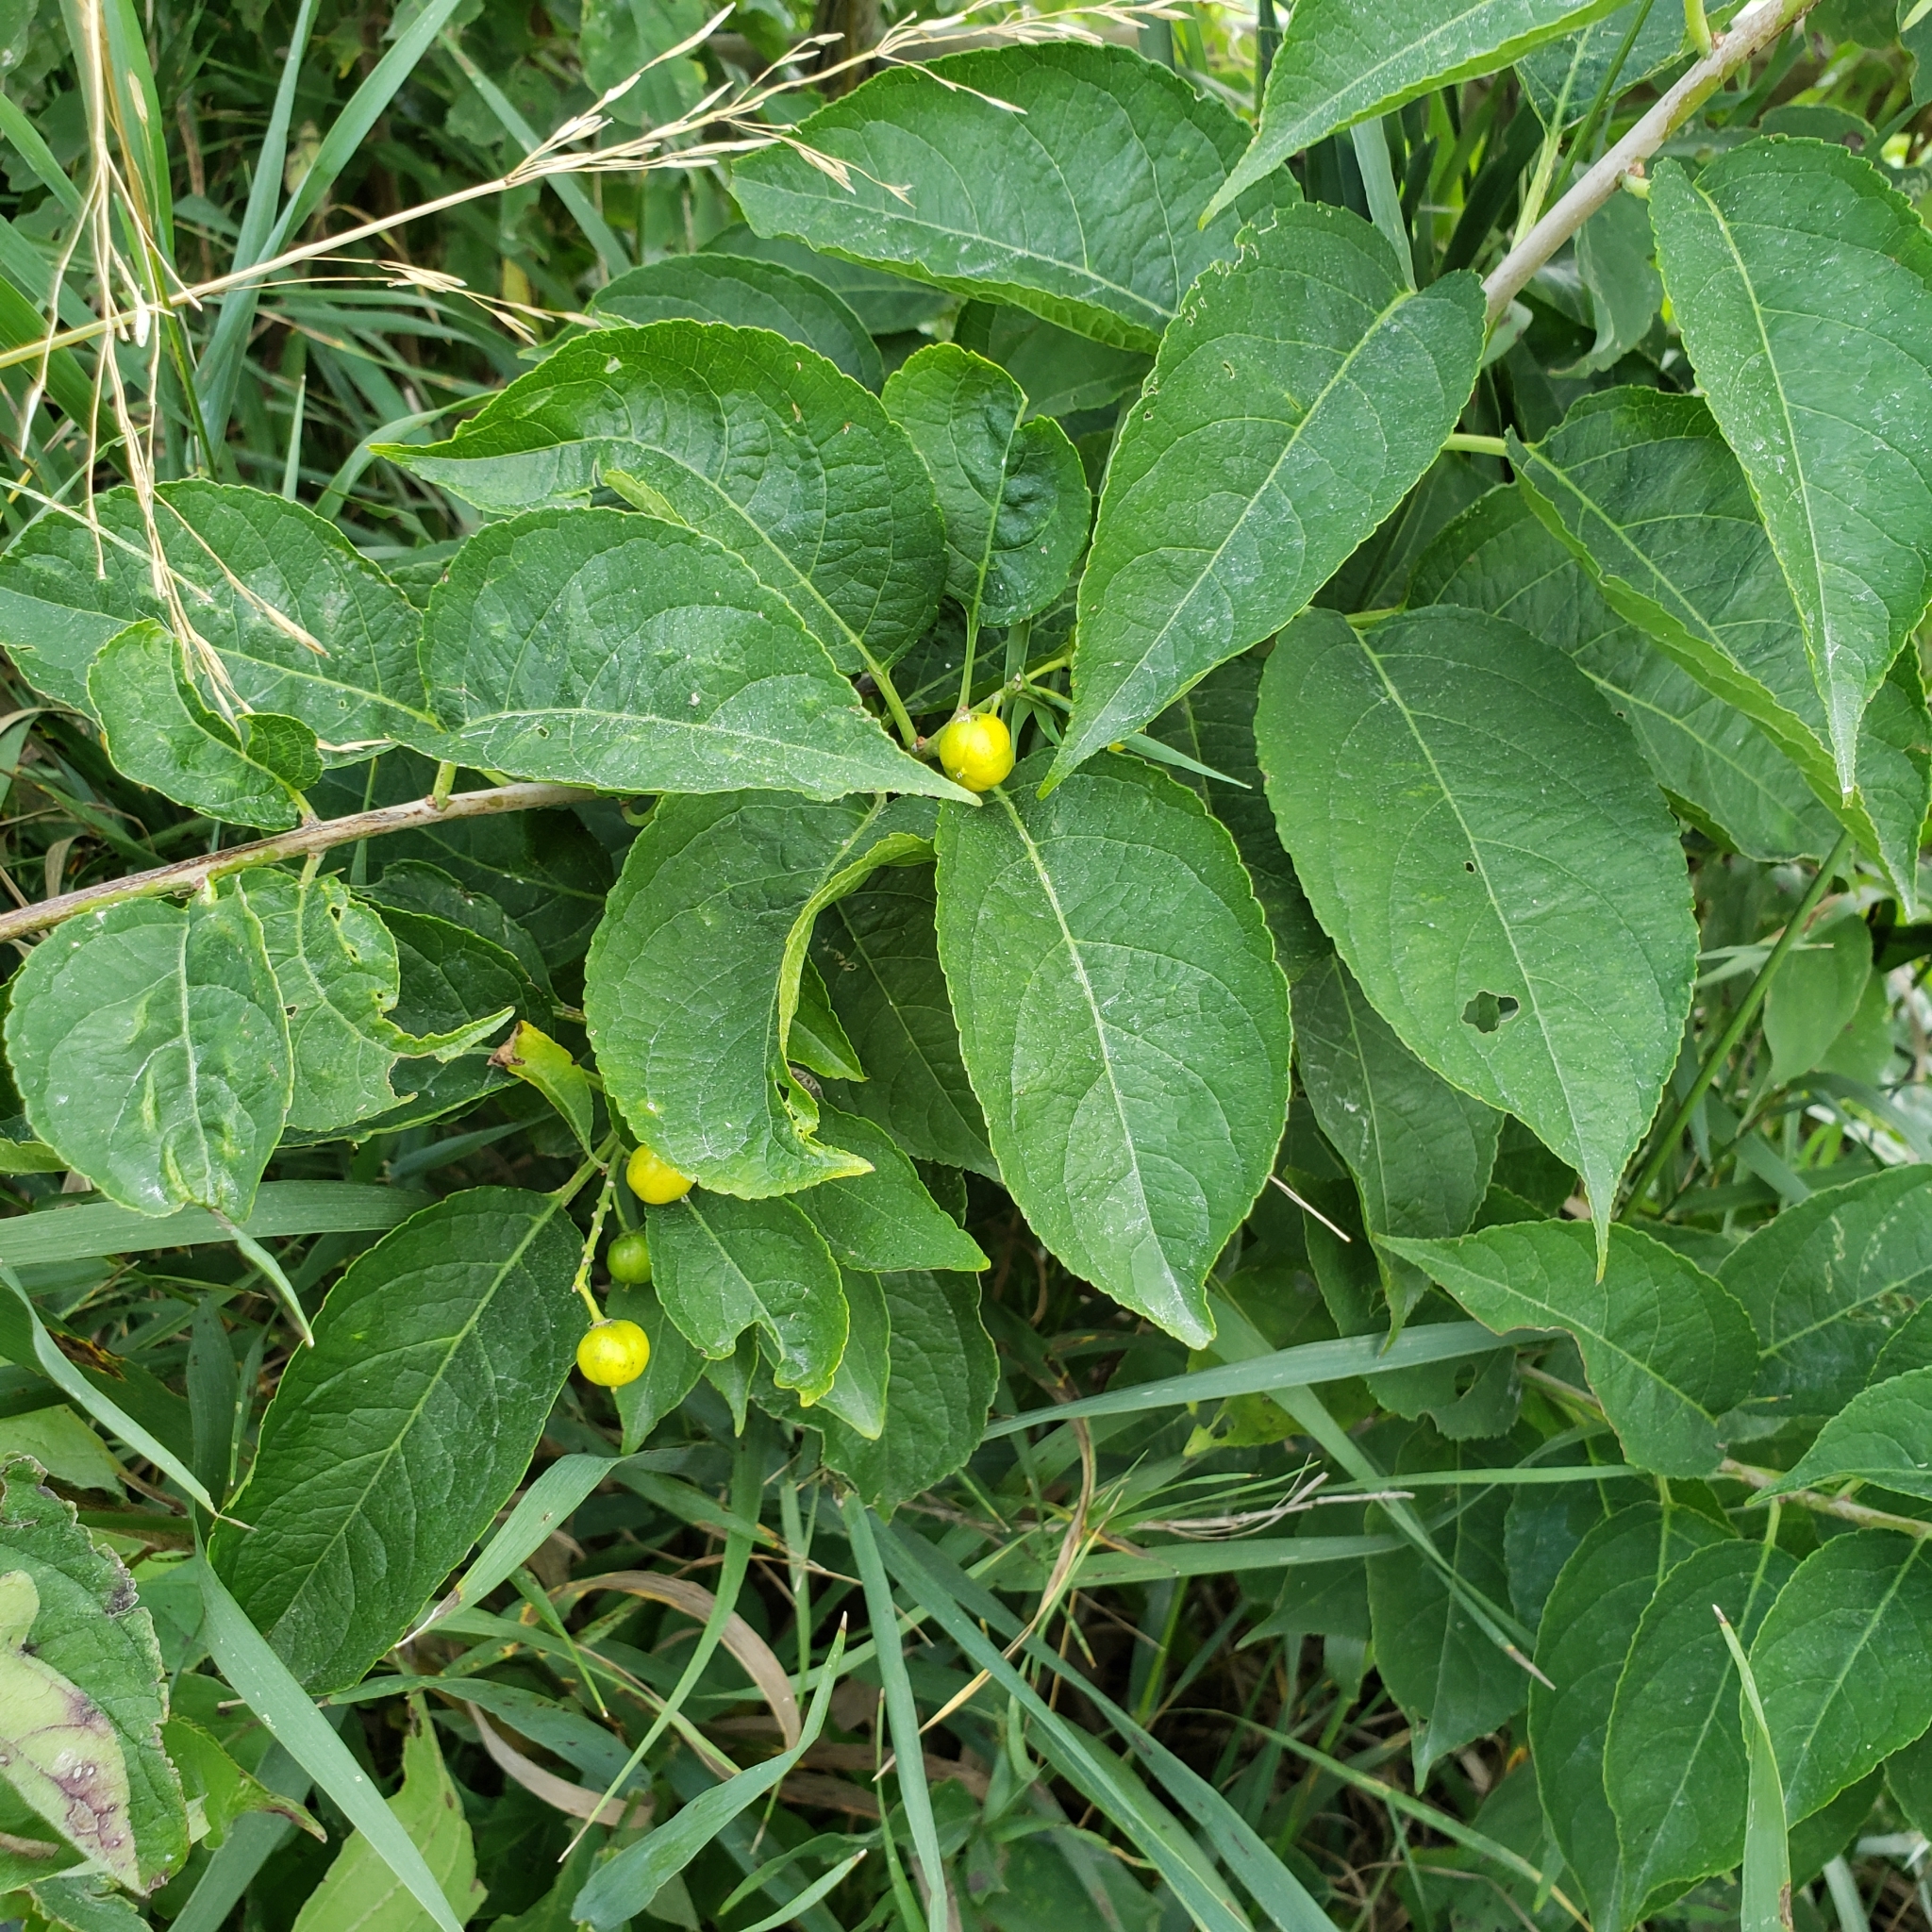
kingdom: Plantae
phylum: Tracheophyta
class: Magnoliopsida
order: Celastrales
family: Celastraceae
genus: Celastrus
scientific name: Celastrus scandens
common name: American bittersweet
